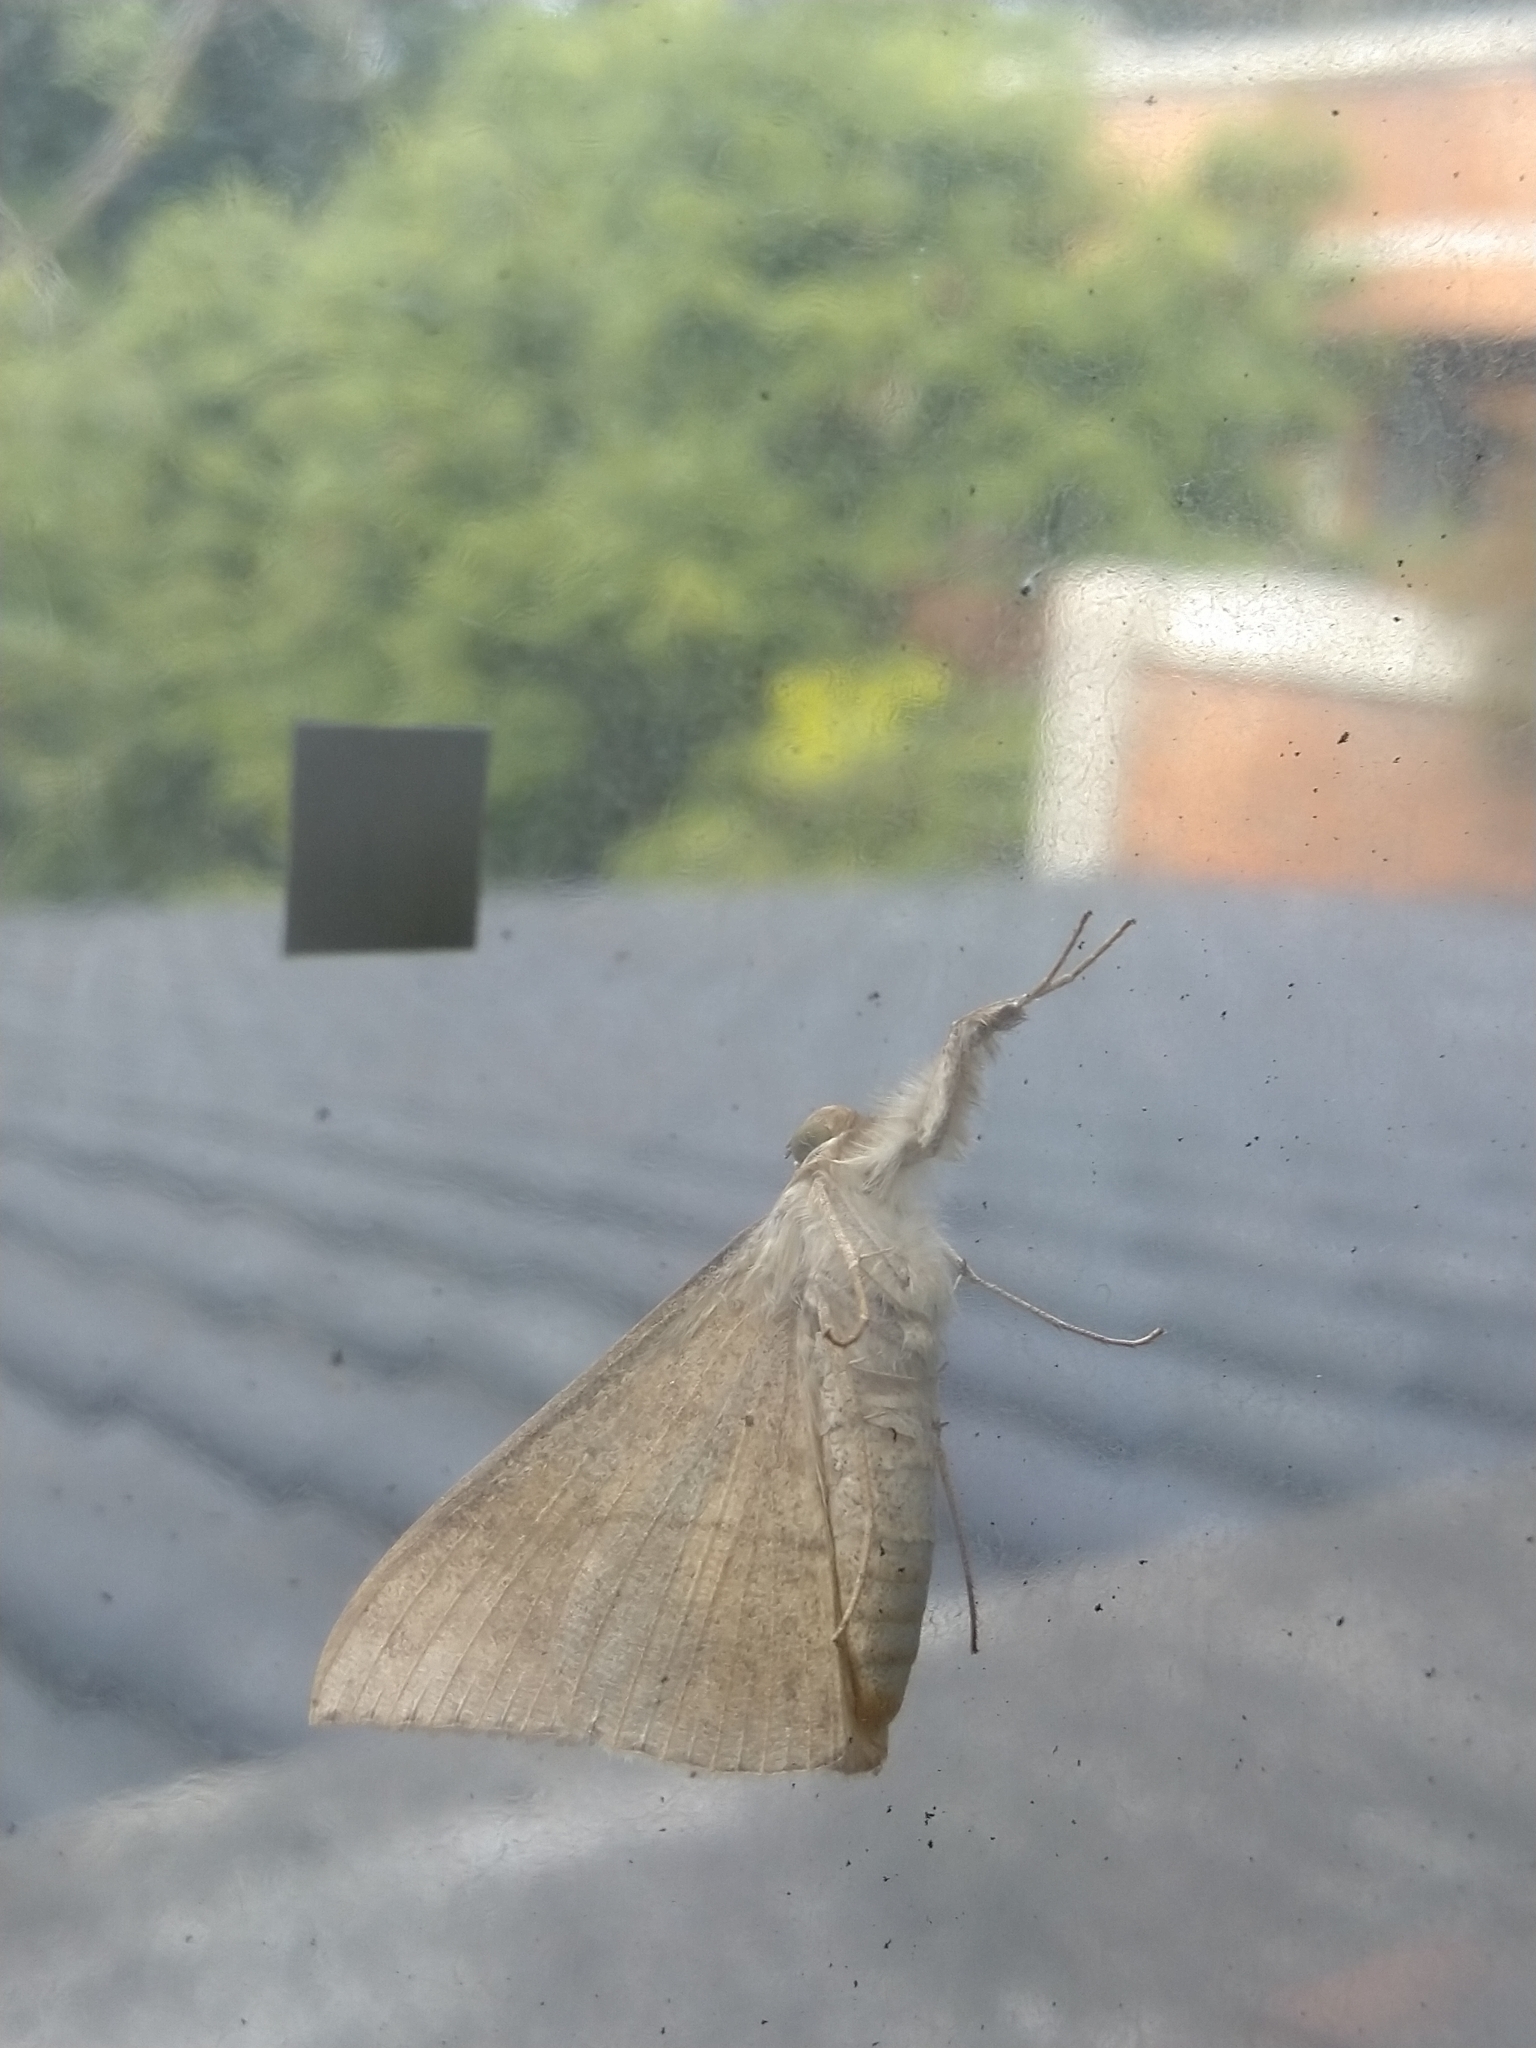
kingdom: Animalia
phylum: Arthropoda
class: Insecta
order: Lepidoptera
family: Erebidae
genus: Oxyodes
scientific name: Oxyodes scrobiculata
